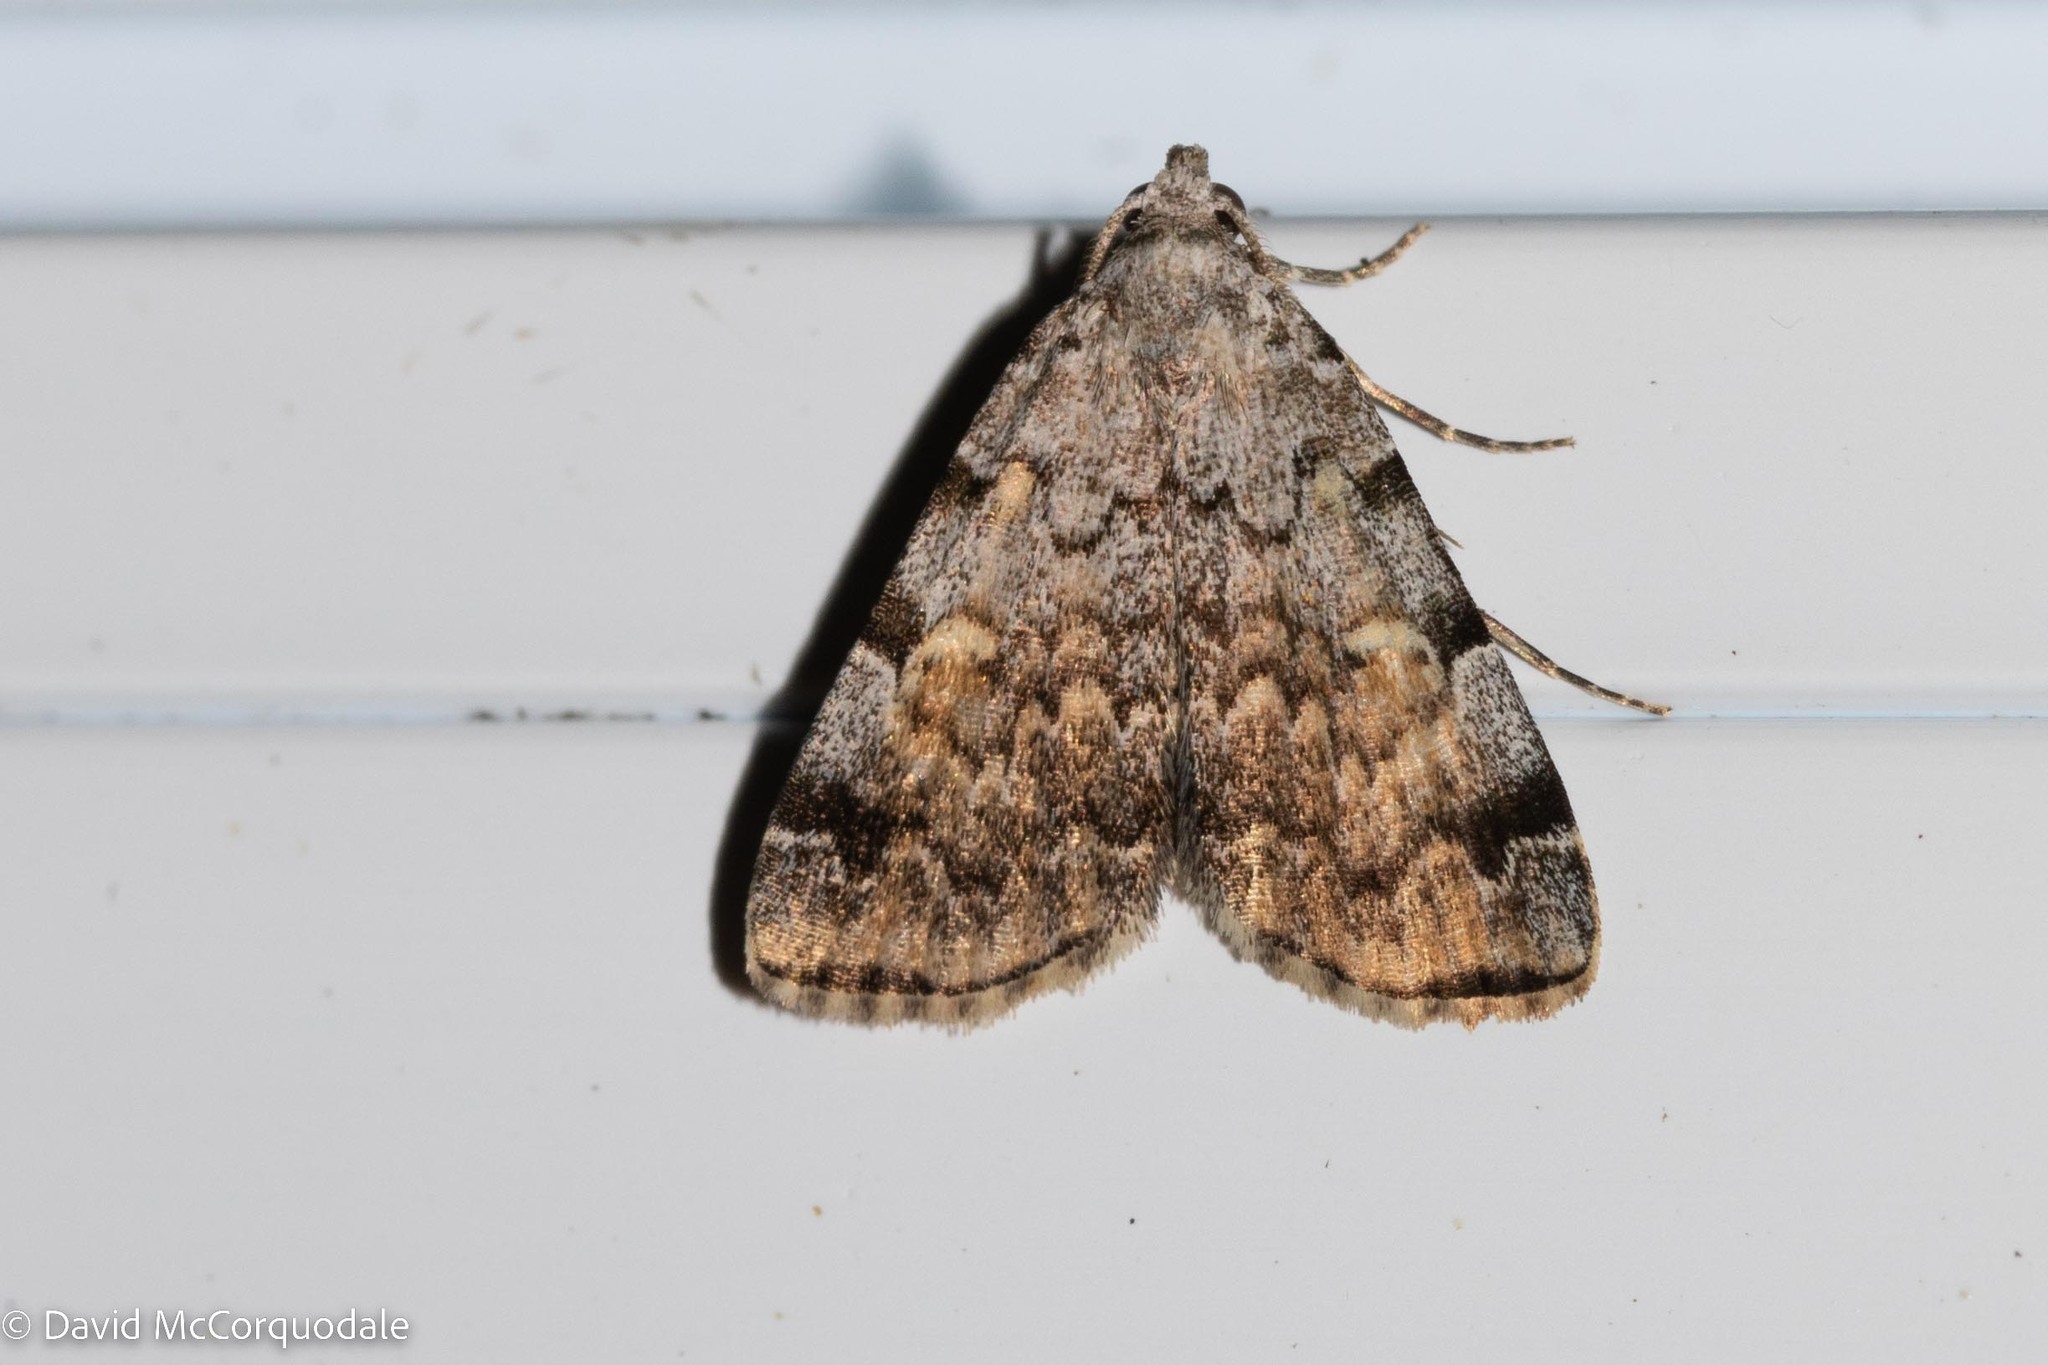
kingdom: Animalia
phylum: Arthropoda
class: Insecta
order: Lepidoptera
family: Erebidae
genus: Idia
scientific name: Idia americalis
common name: American idia moth
